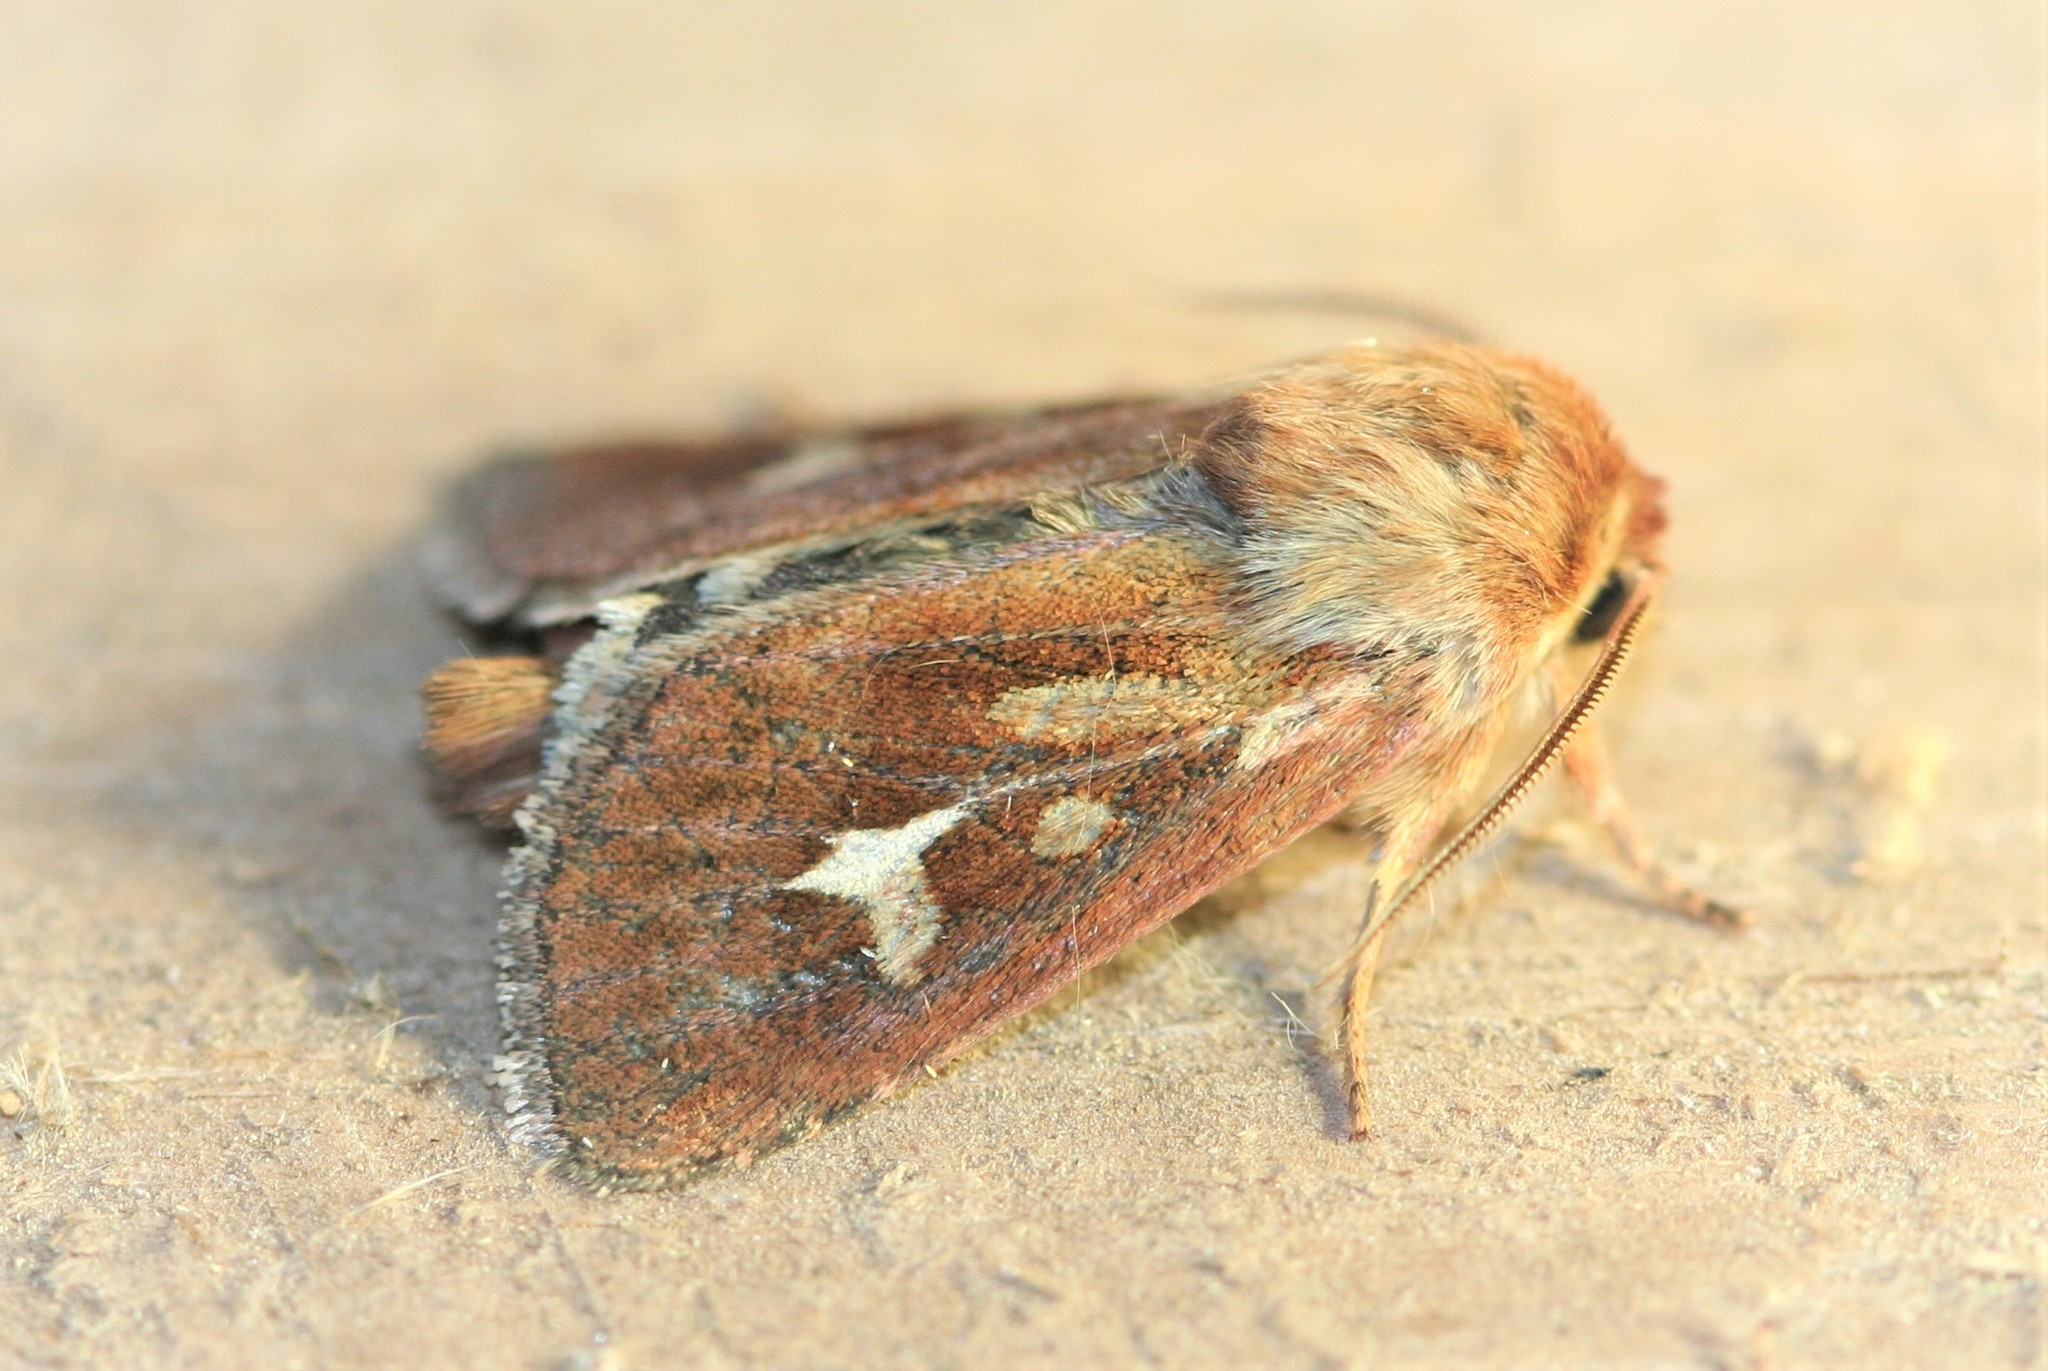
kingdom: Animalia
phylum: Arthropoda
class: Insecta
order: Lepidoptera
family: Noctuidae
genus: Cerapteryx
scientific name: Cerapteryx graminis
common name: Antler moth
